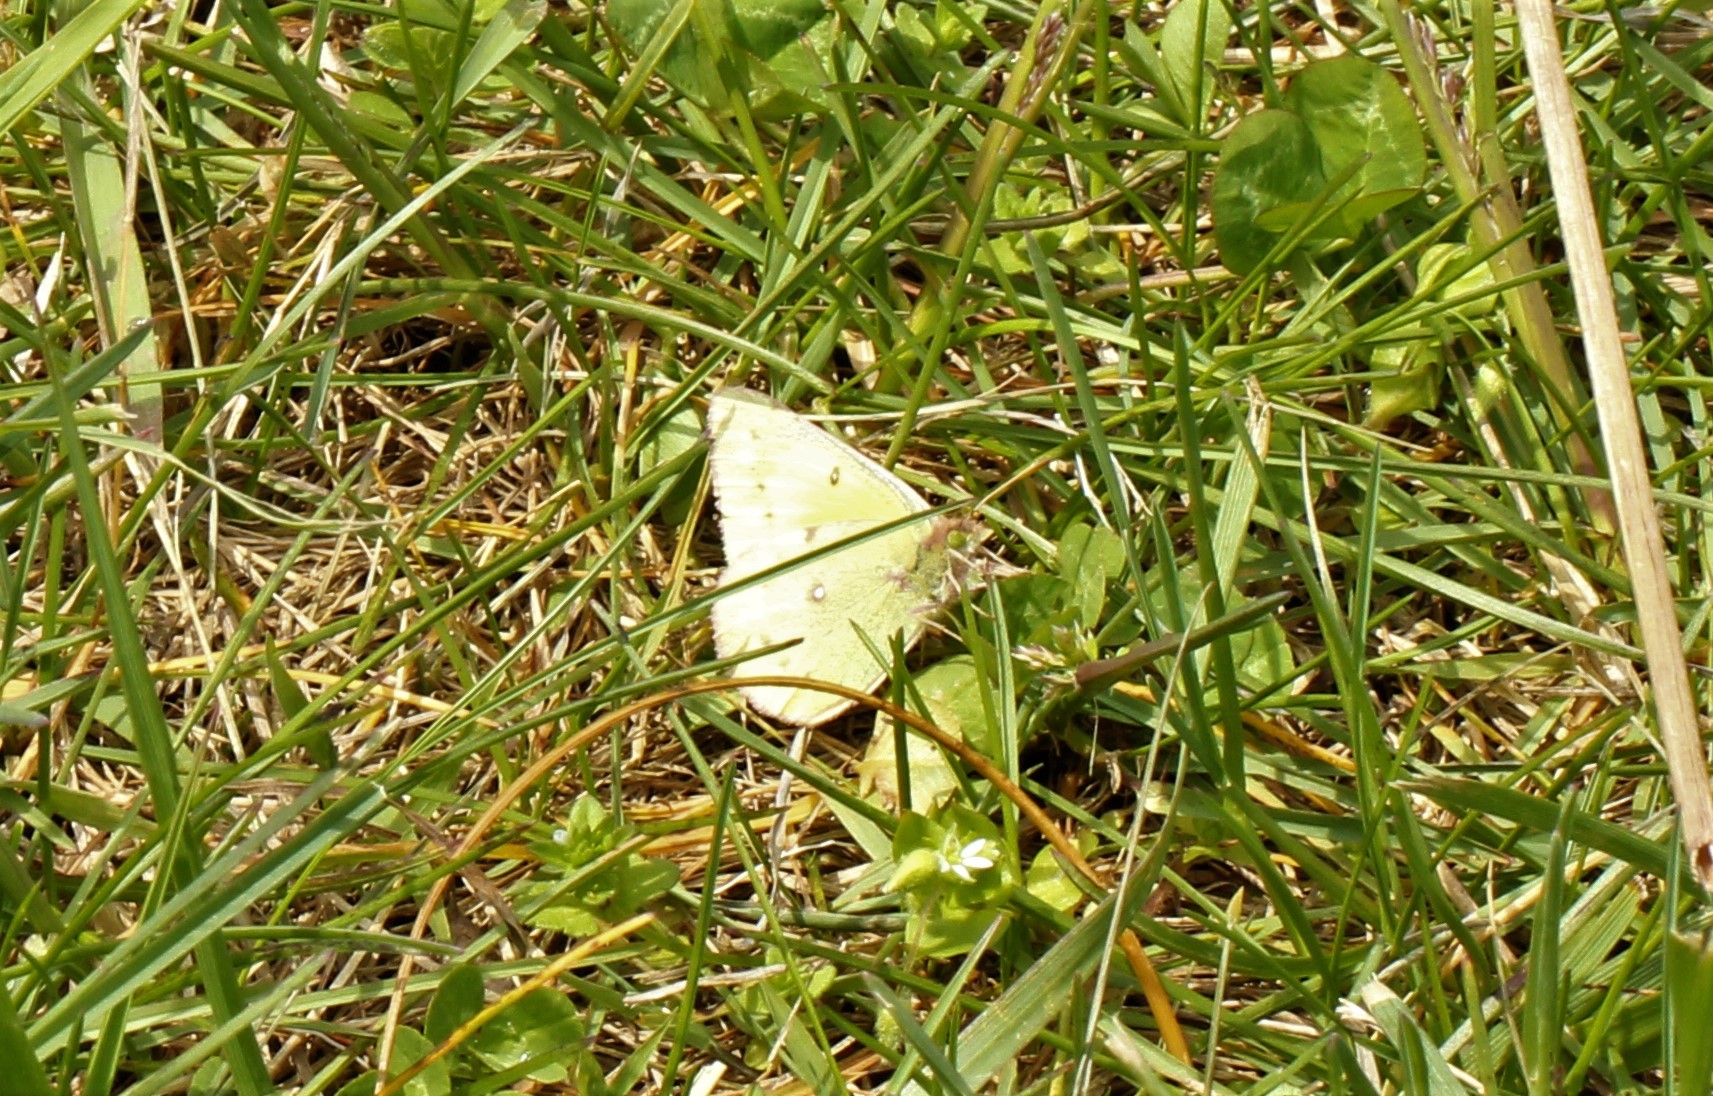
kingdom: Animalia
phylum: Arthropoda
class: Insecta
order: Lepidoptera
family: Pieridae
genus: Colias
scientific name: Colias eurytheme
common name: Alfalfa butterfly
